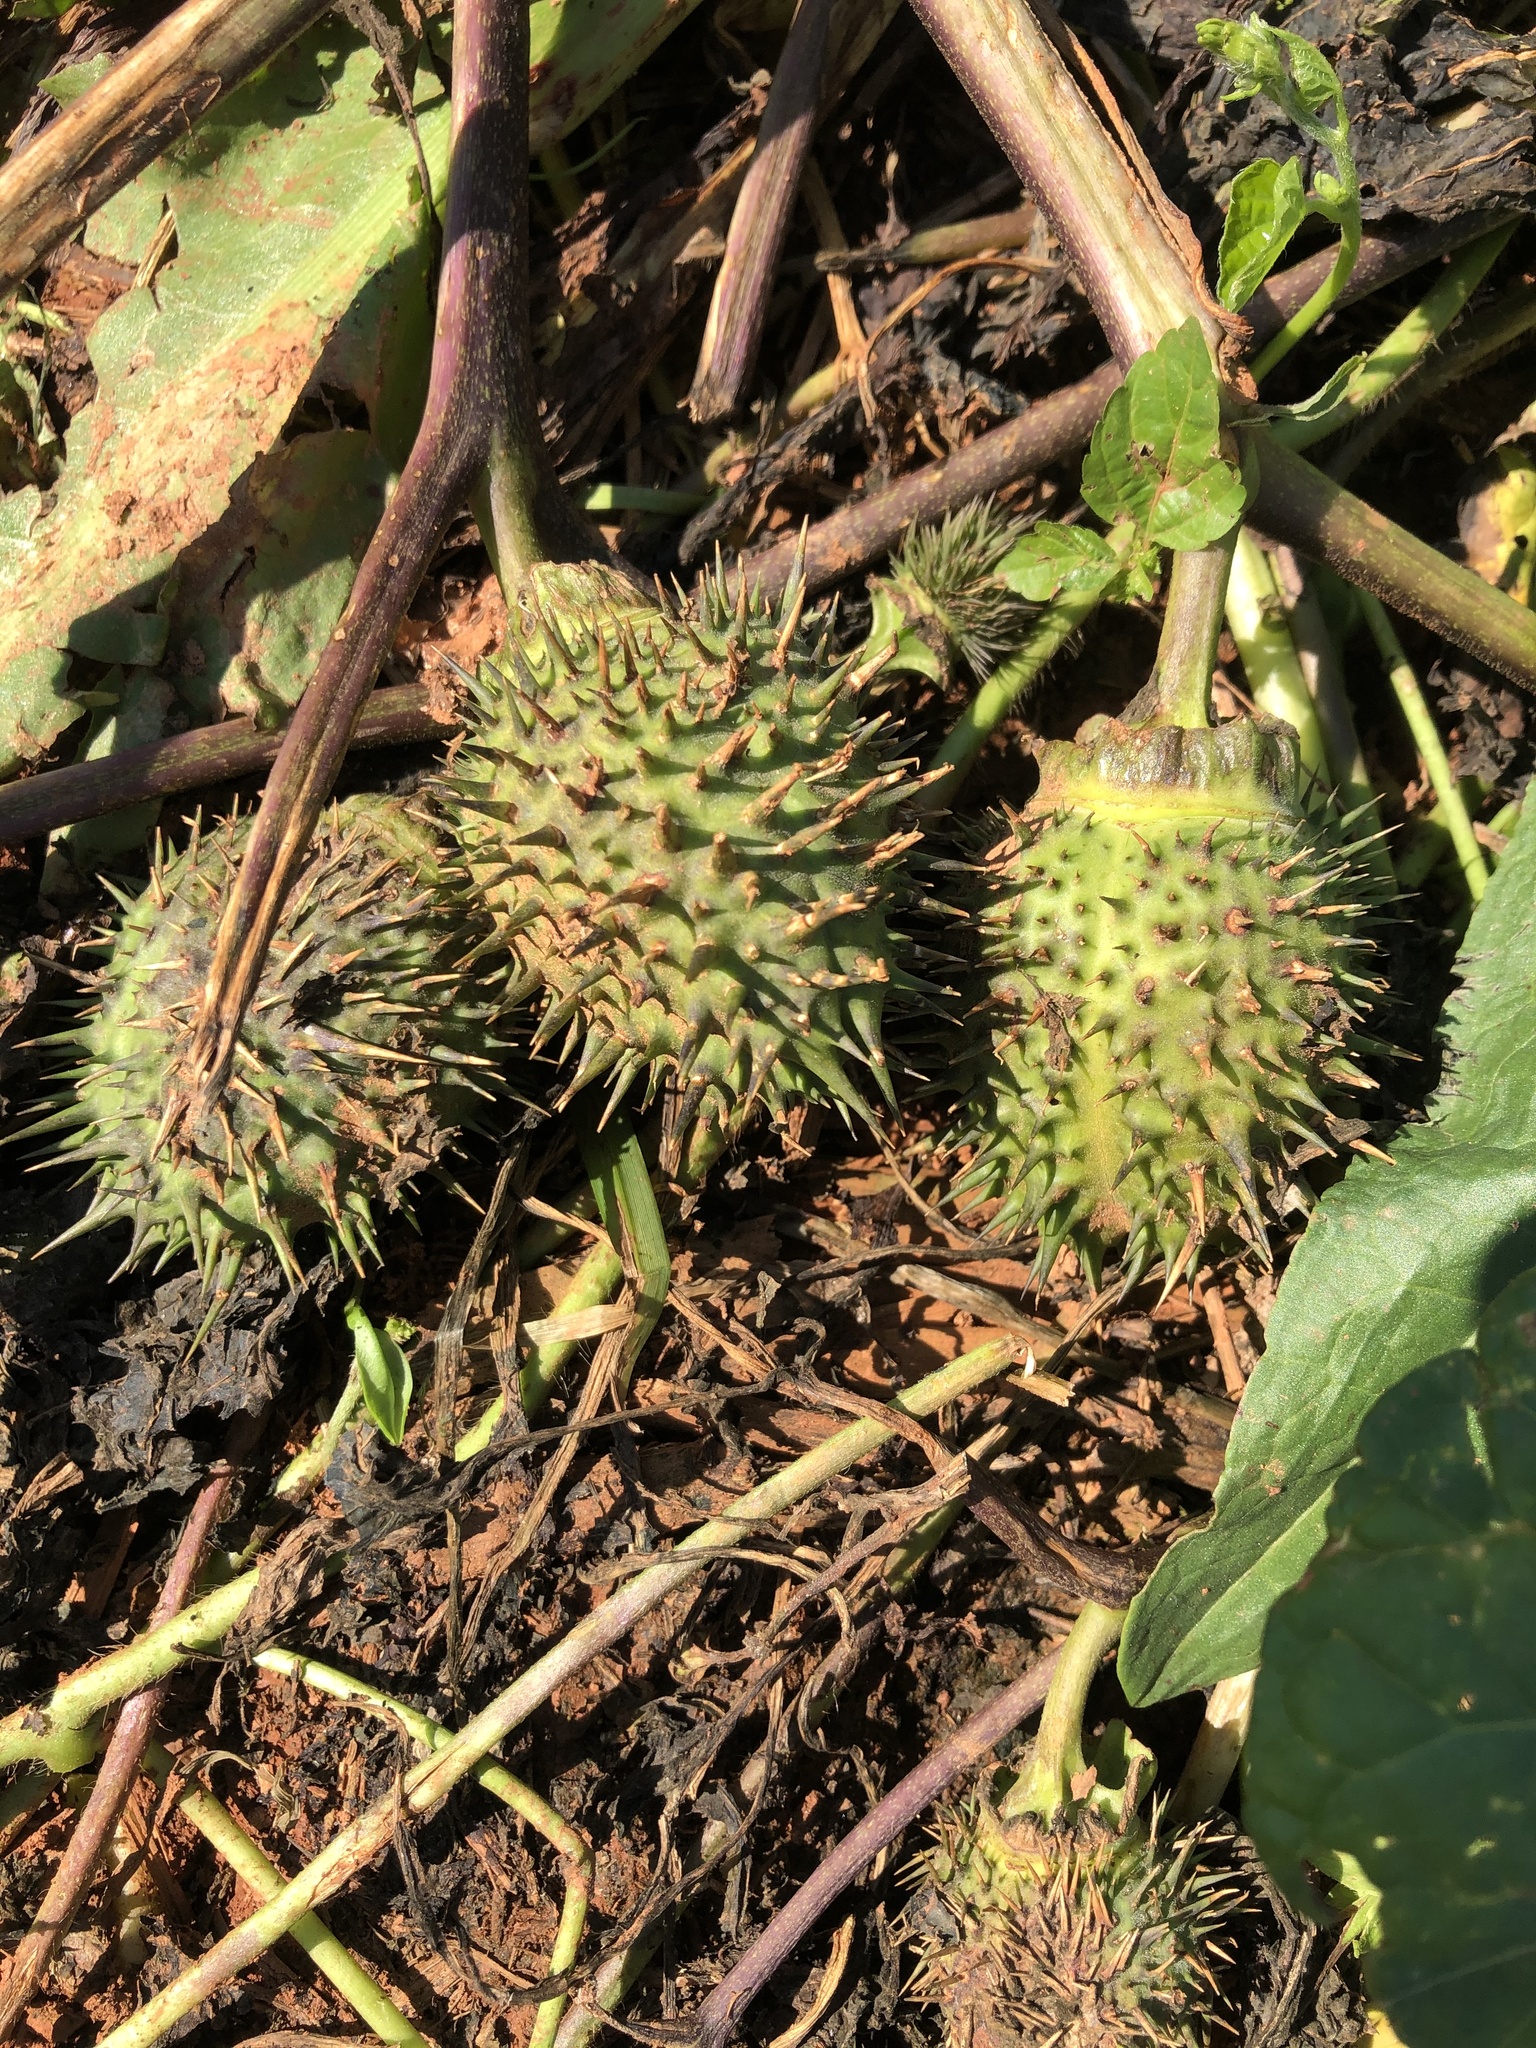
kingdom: Plantae
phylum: Tracheophyta
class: Magnoliopsida
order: Solanales
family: Solanaceae
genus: Datura
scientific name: Datura stramonium
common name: Thorn-apple
